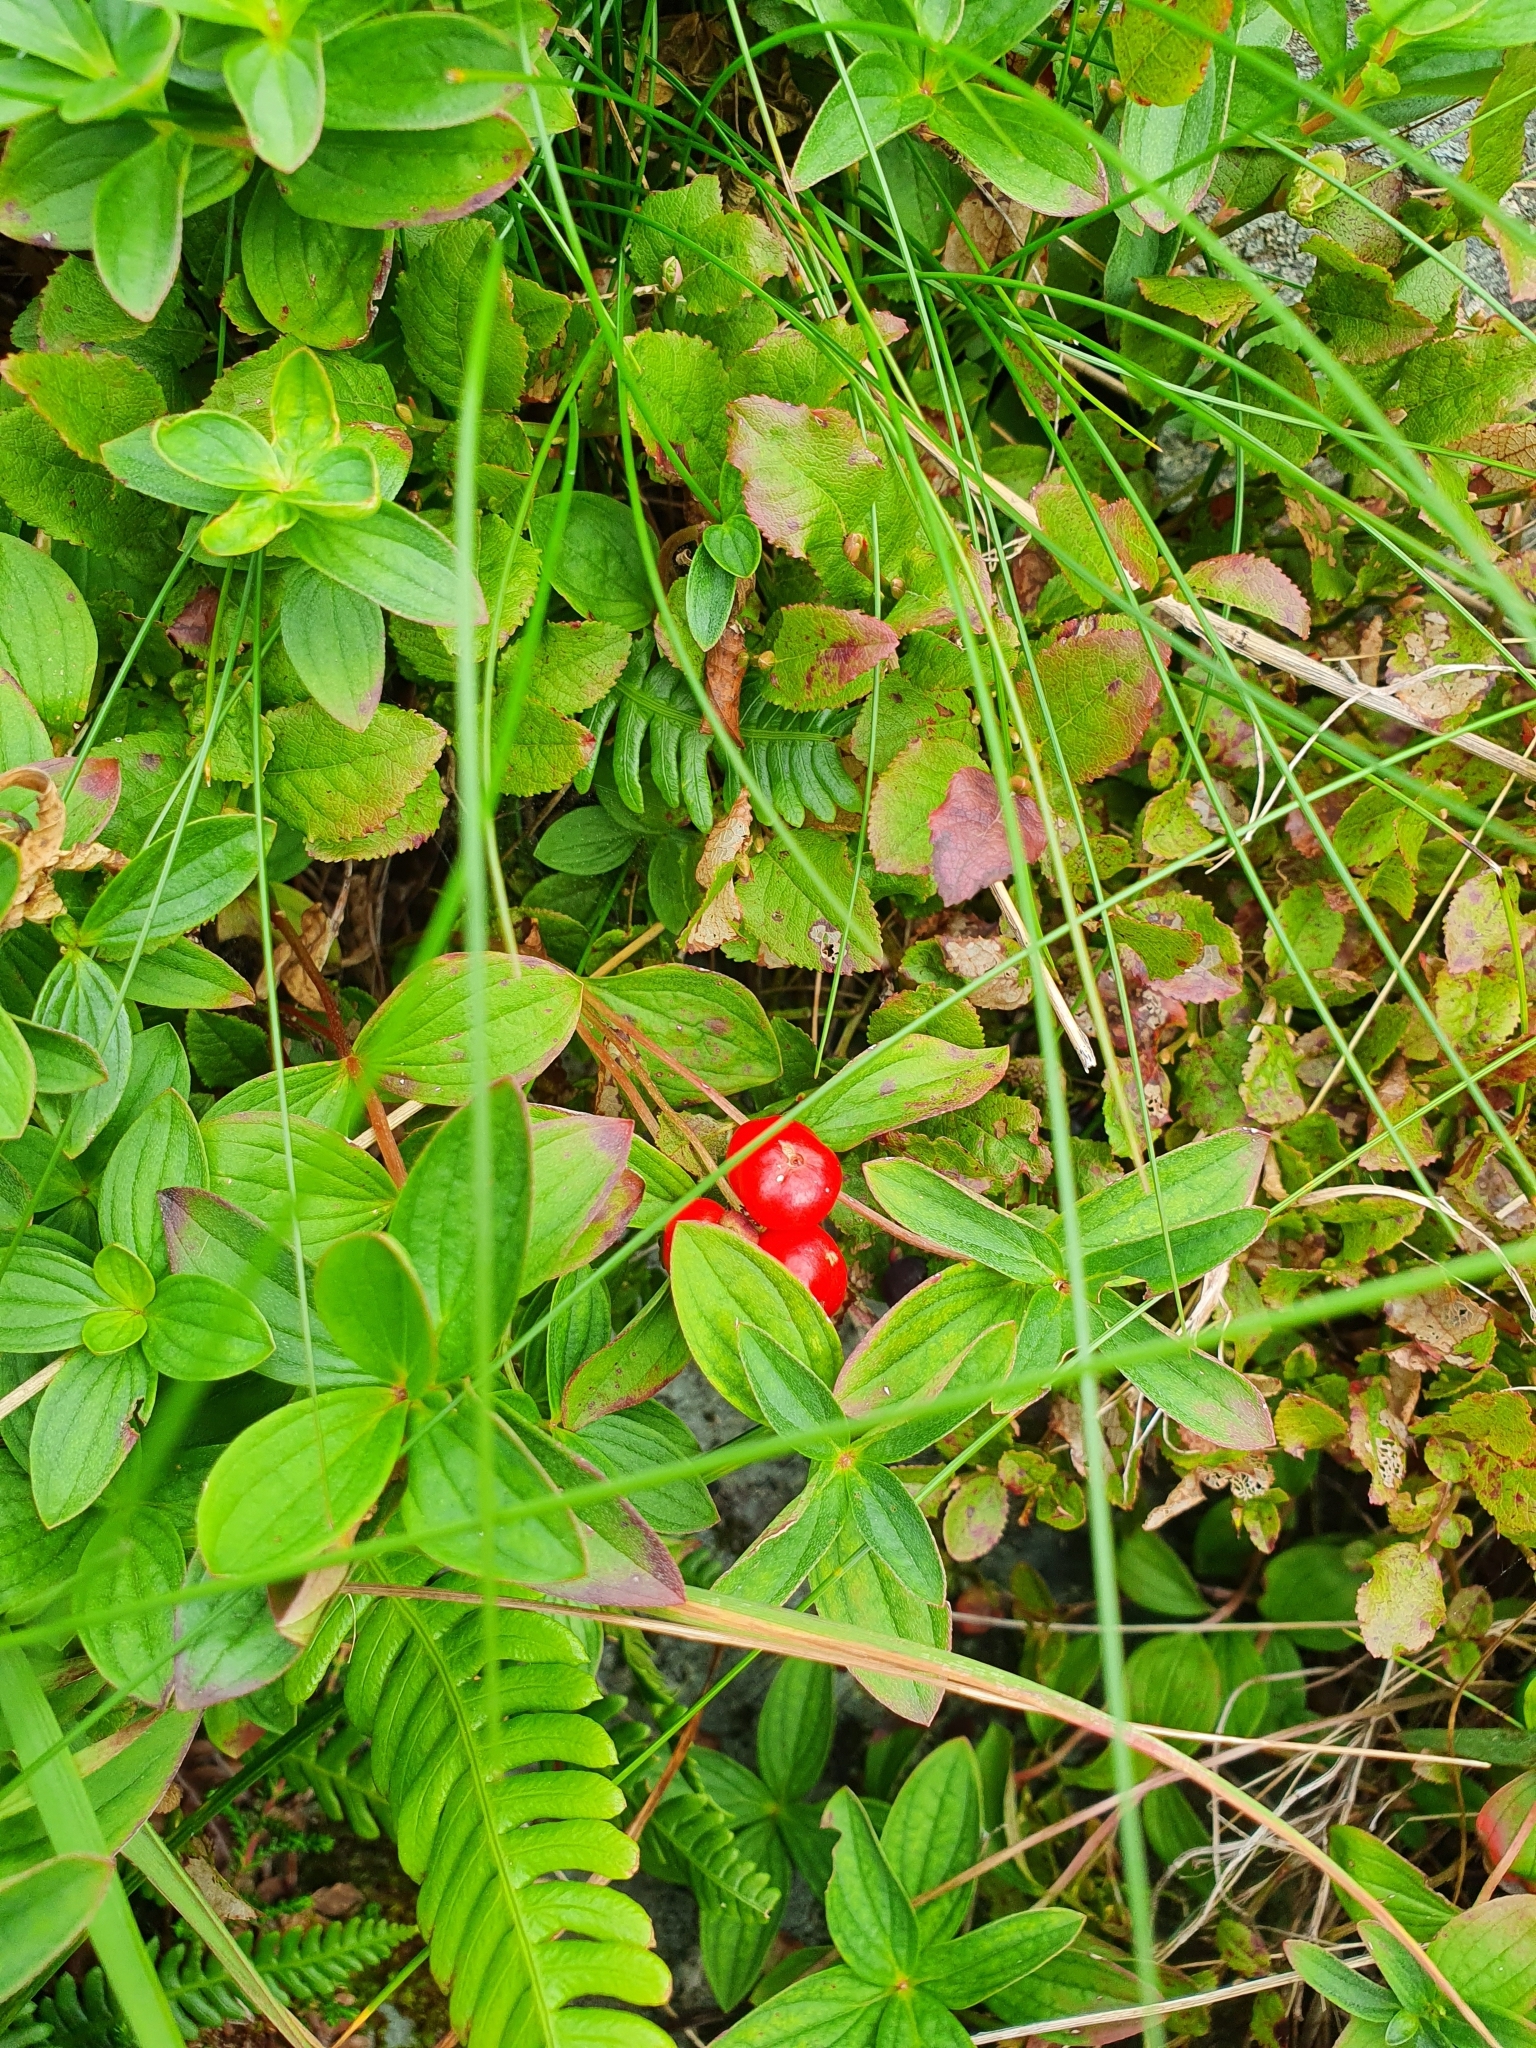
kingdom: Plantae
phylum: Tracheophyta
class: Magnoliopsida
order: Cornales
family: Cornaceae
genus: Cornus
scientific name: Cornus suecica
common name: Dwarf cornel
